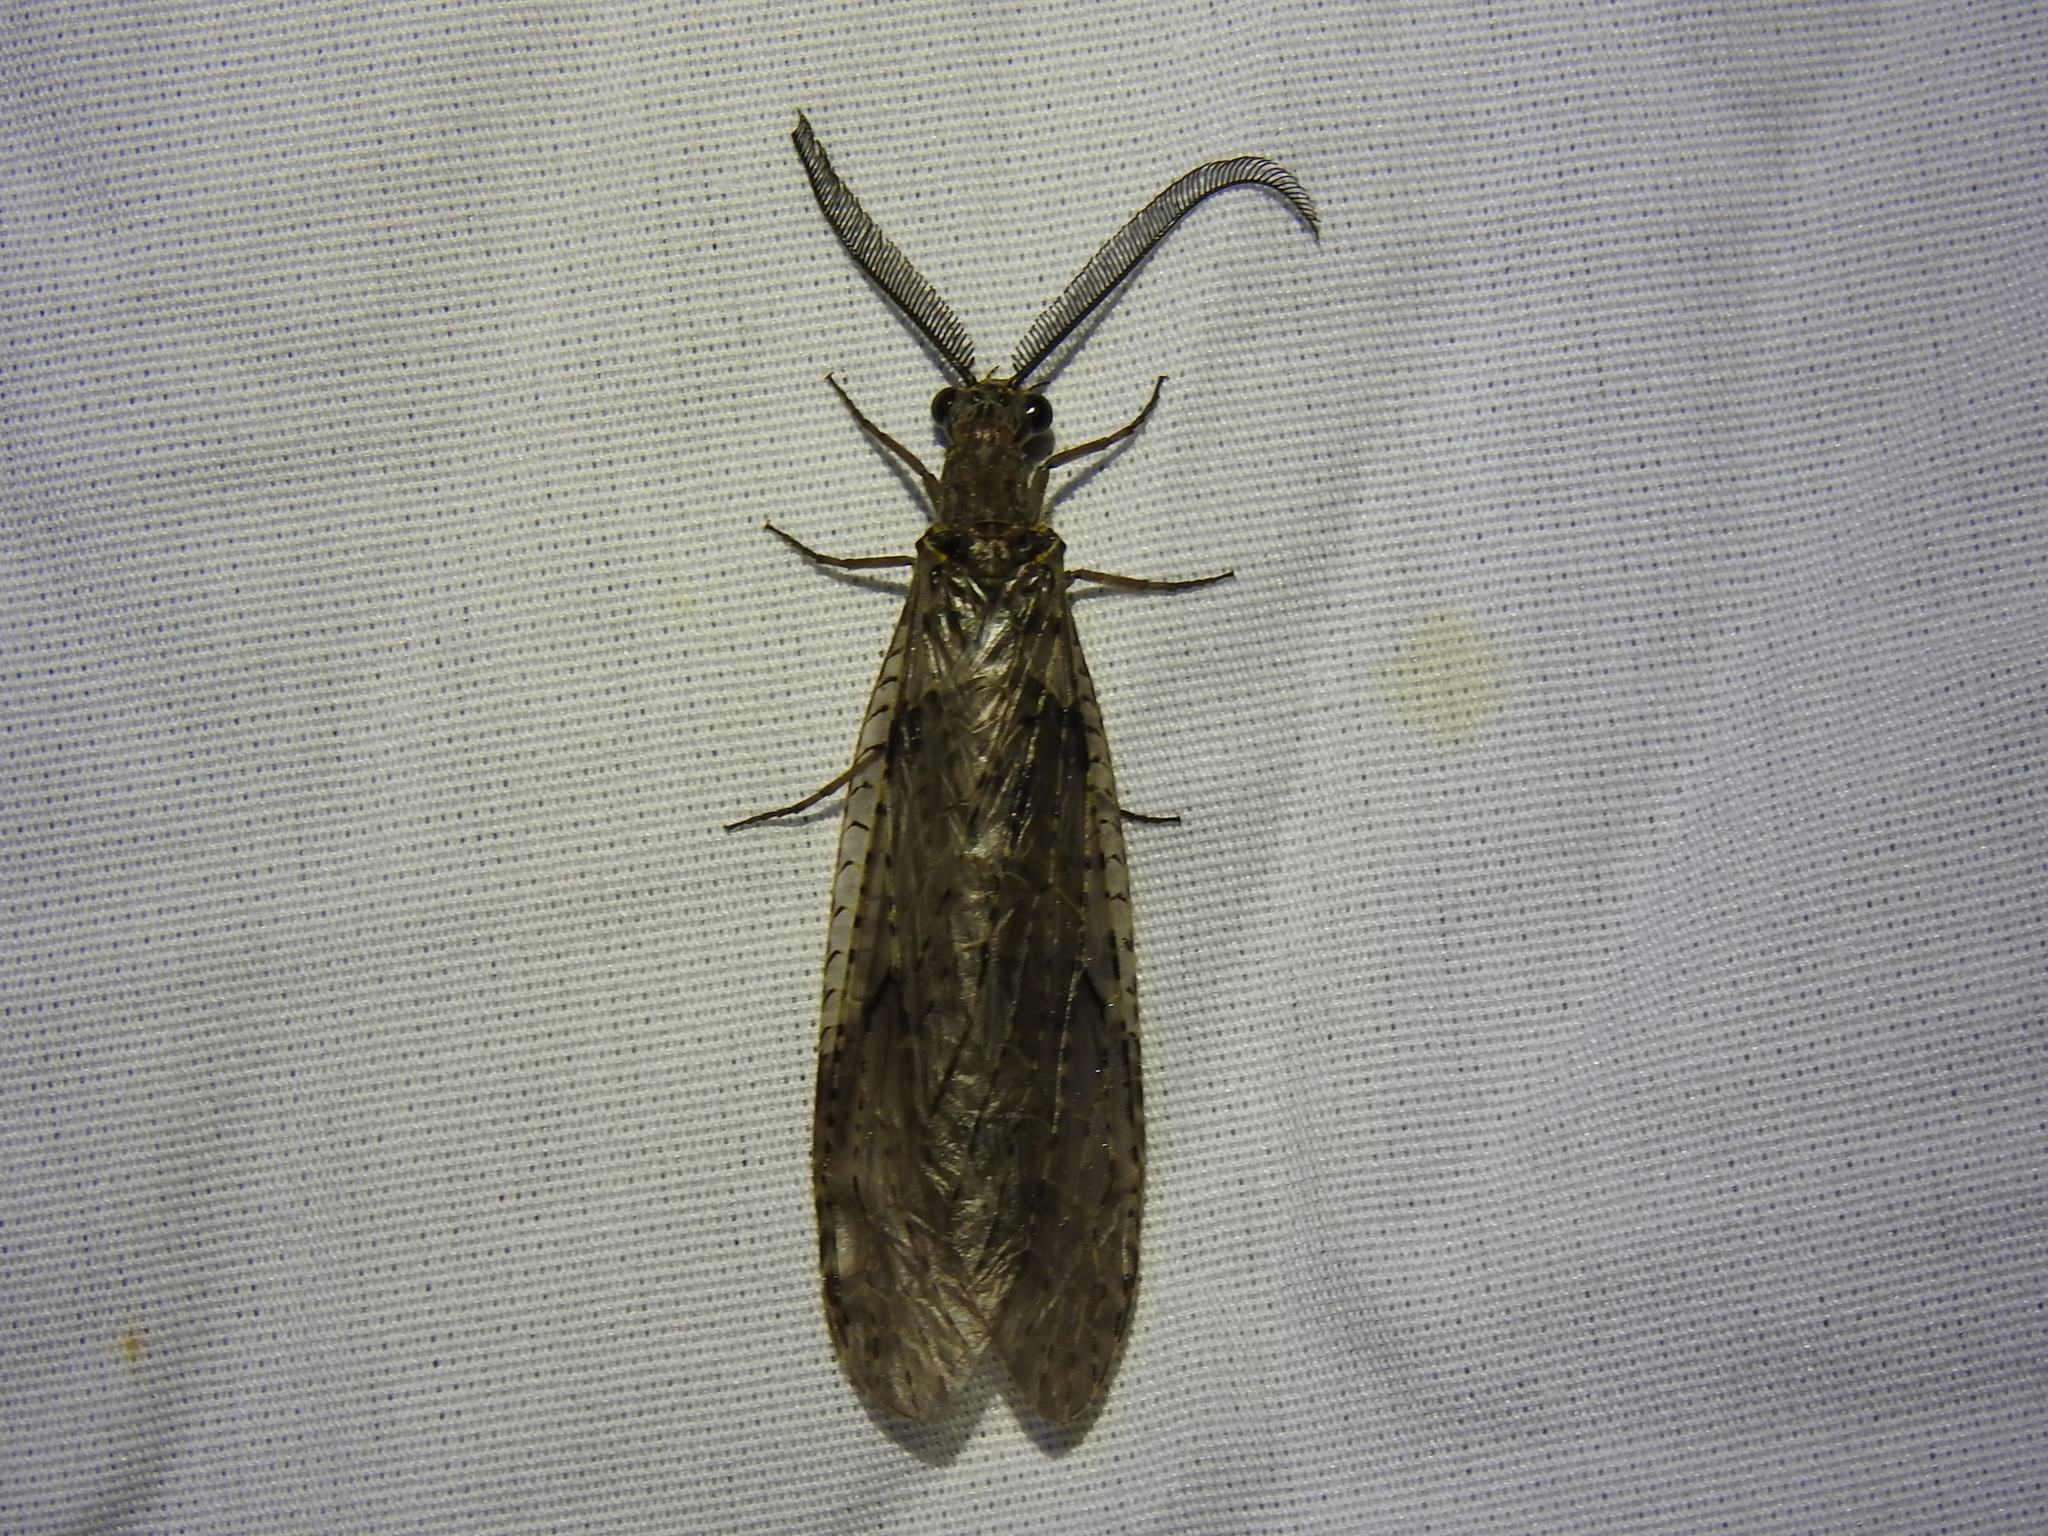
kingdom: Animalia
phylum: Arthropoda
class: Insecta
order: Megaloptera
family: Corydalidae
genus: Chauliodes
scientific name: Chauliodes rastricornis
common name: Spring fishfly
